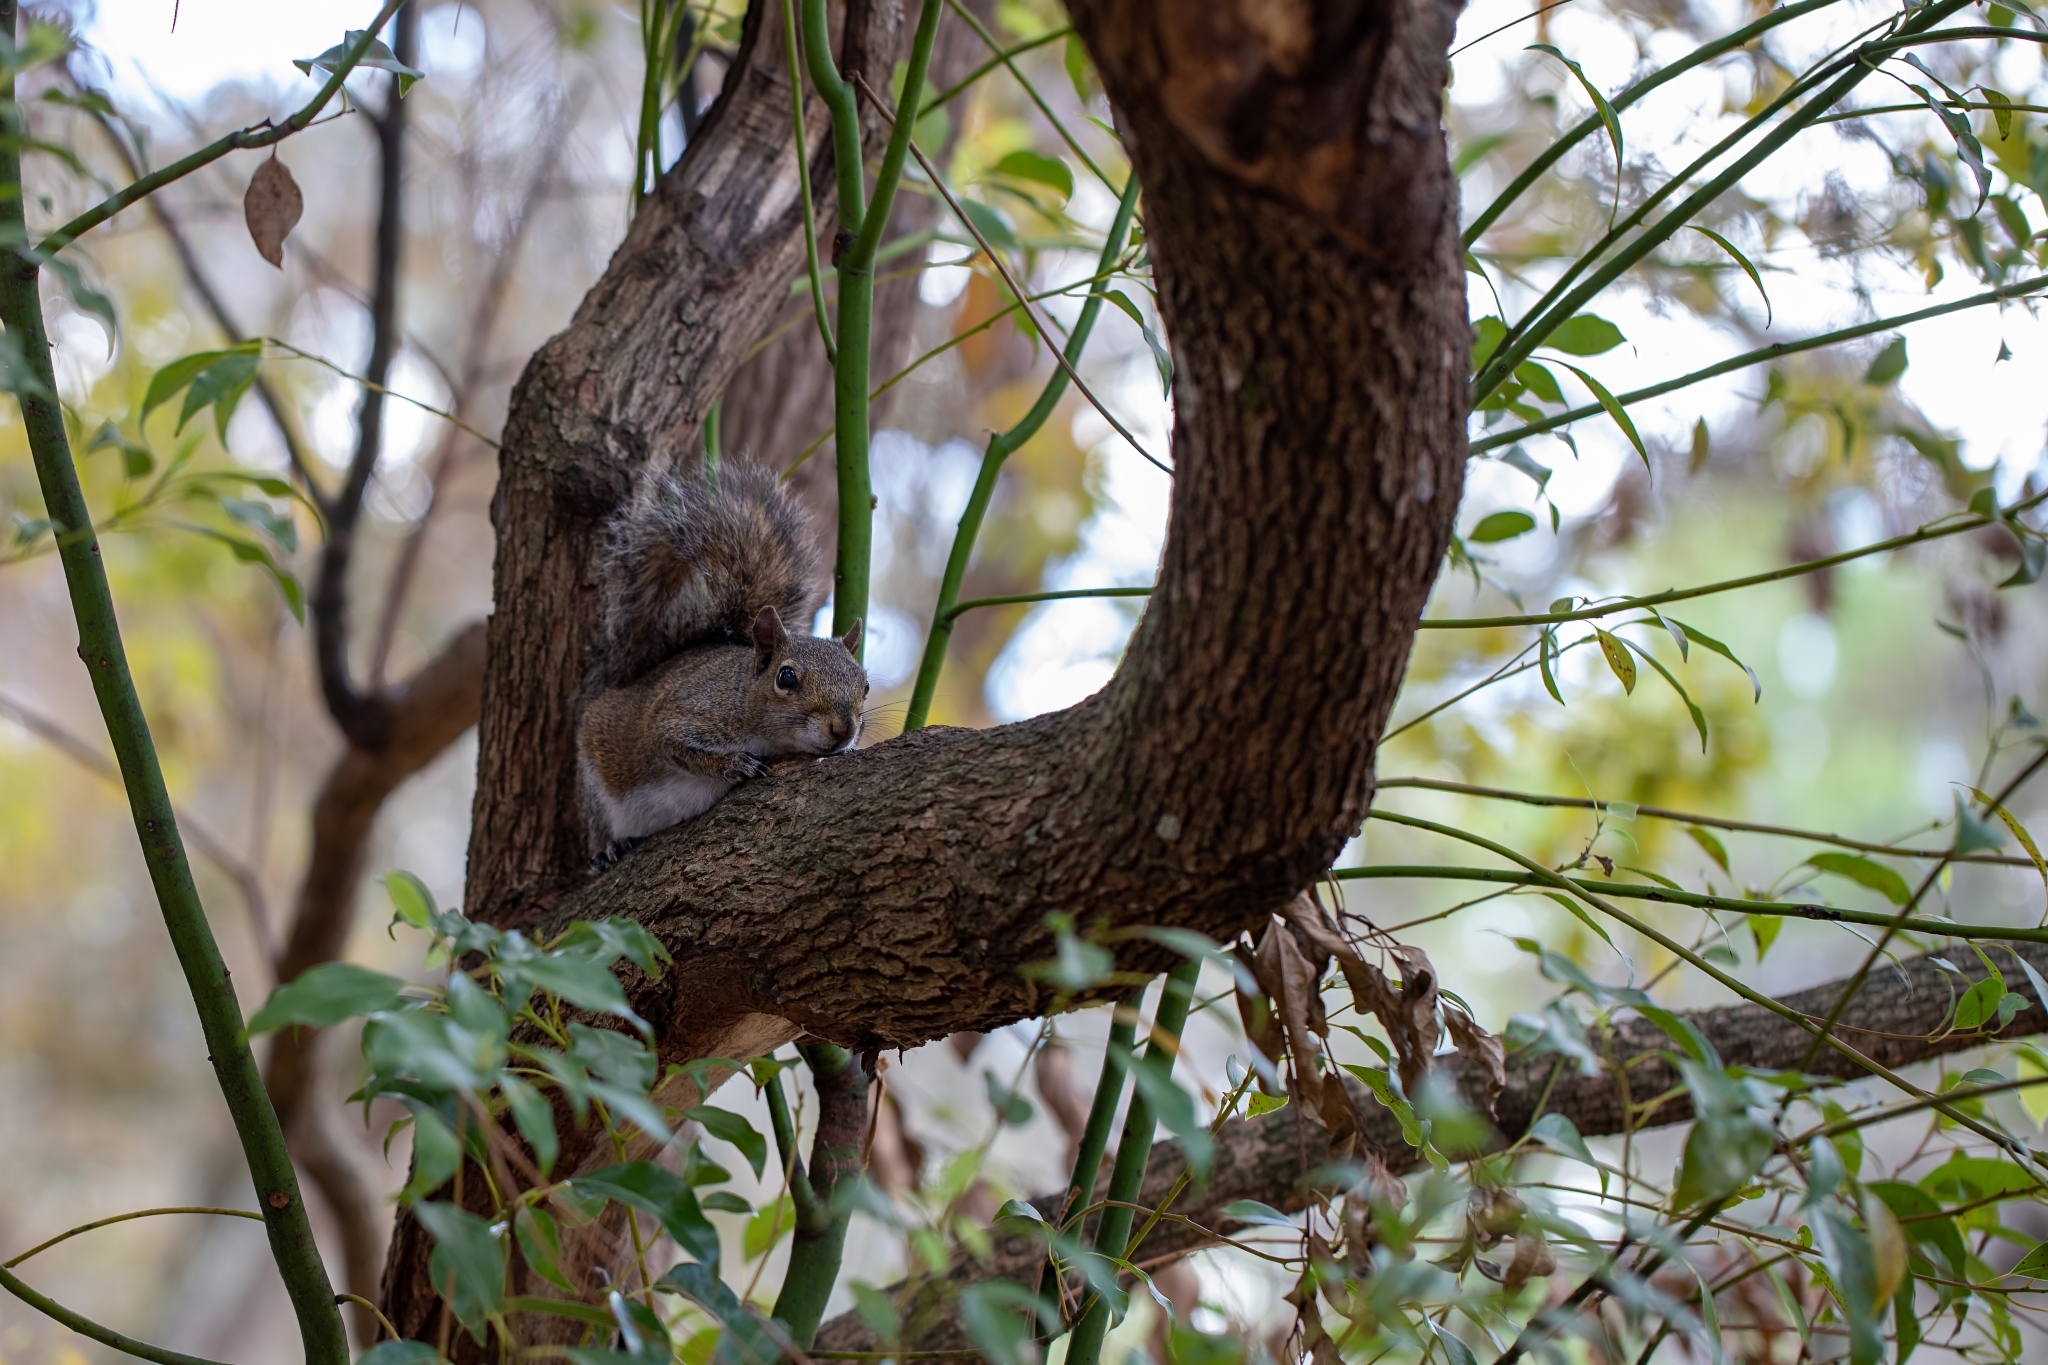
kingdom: Animalia
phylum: Chordata
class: Mammalia
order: Rodentia
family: Sciuridae
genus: Sciurus
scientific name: Sciurus carolinensis
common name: Eastern gray squirrel
